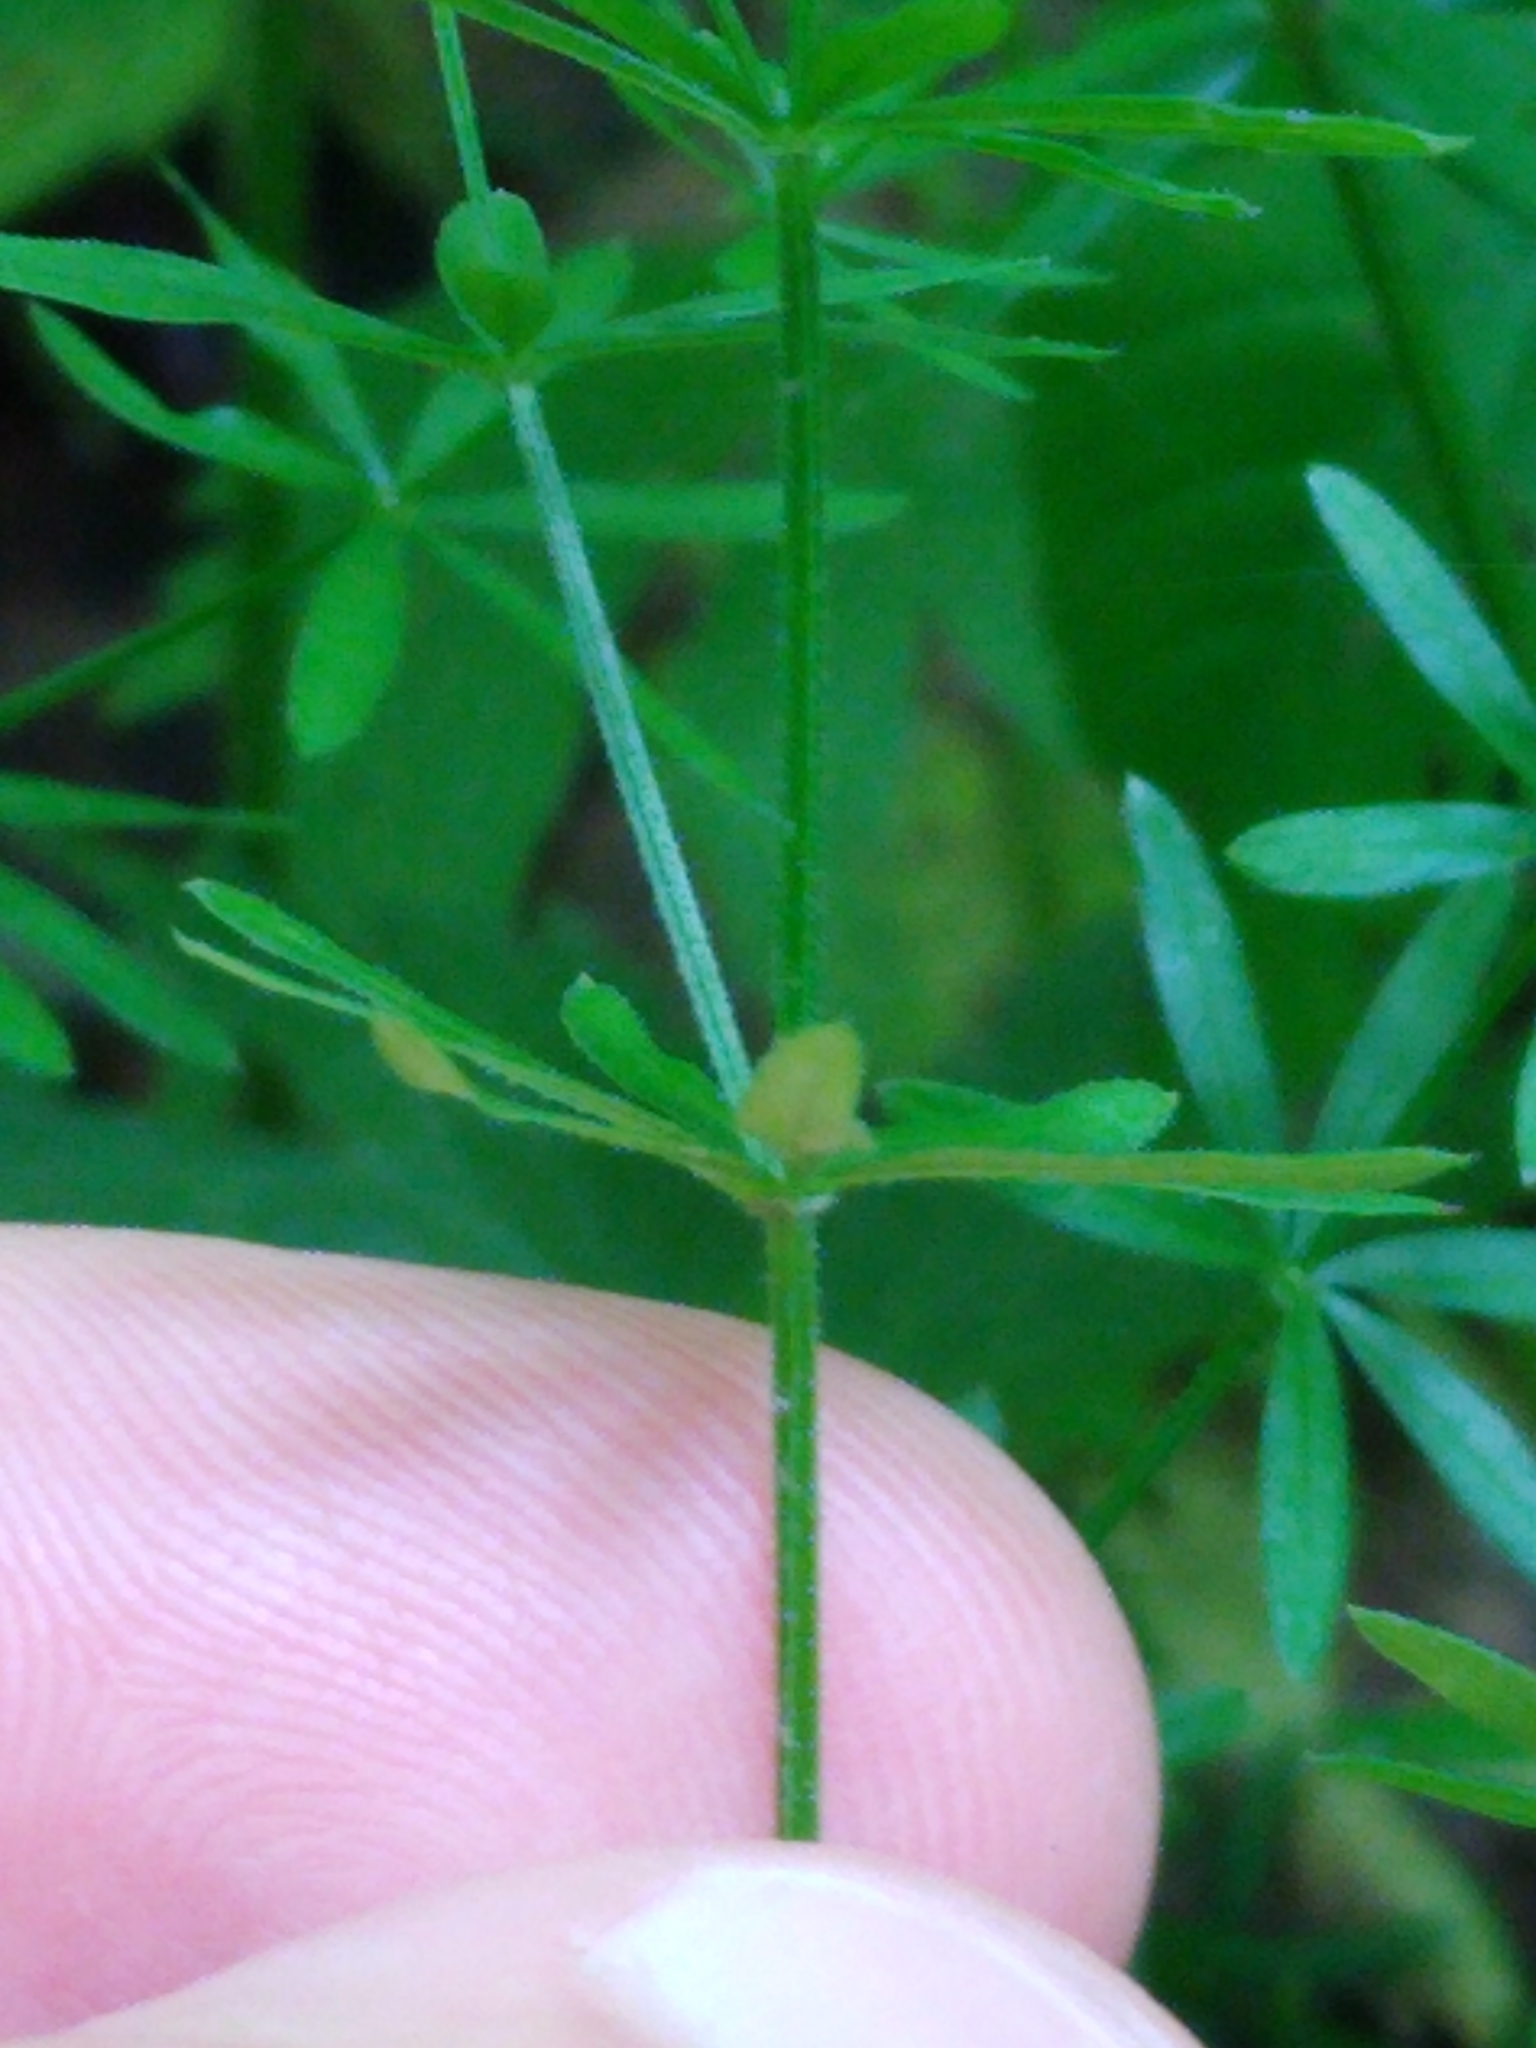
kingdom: Plantae
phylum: Tracheophyta
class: Magnoliopsida
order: Gentianales
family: Rubiaceae
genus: Galium
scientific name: Galium concinnum
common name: Shining bedstraw
